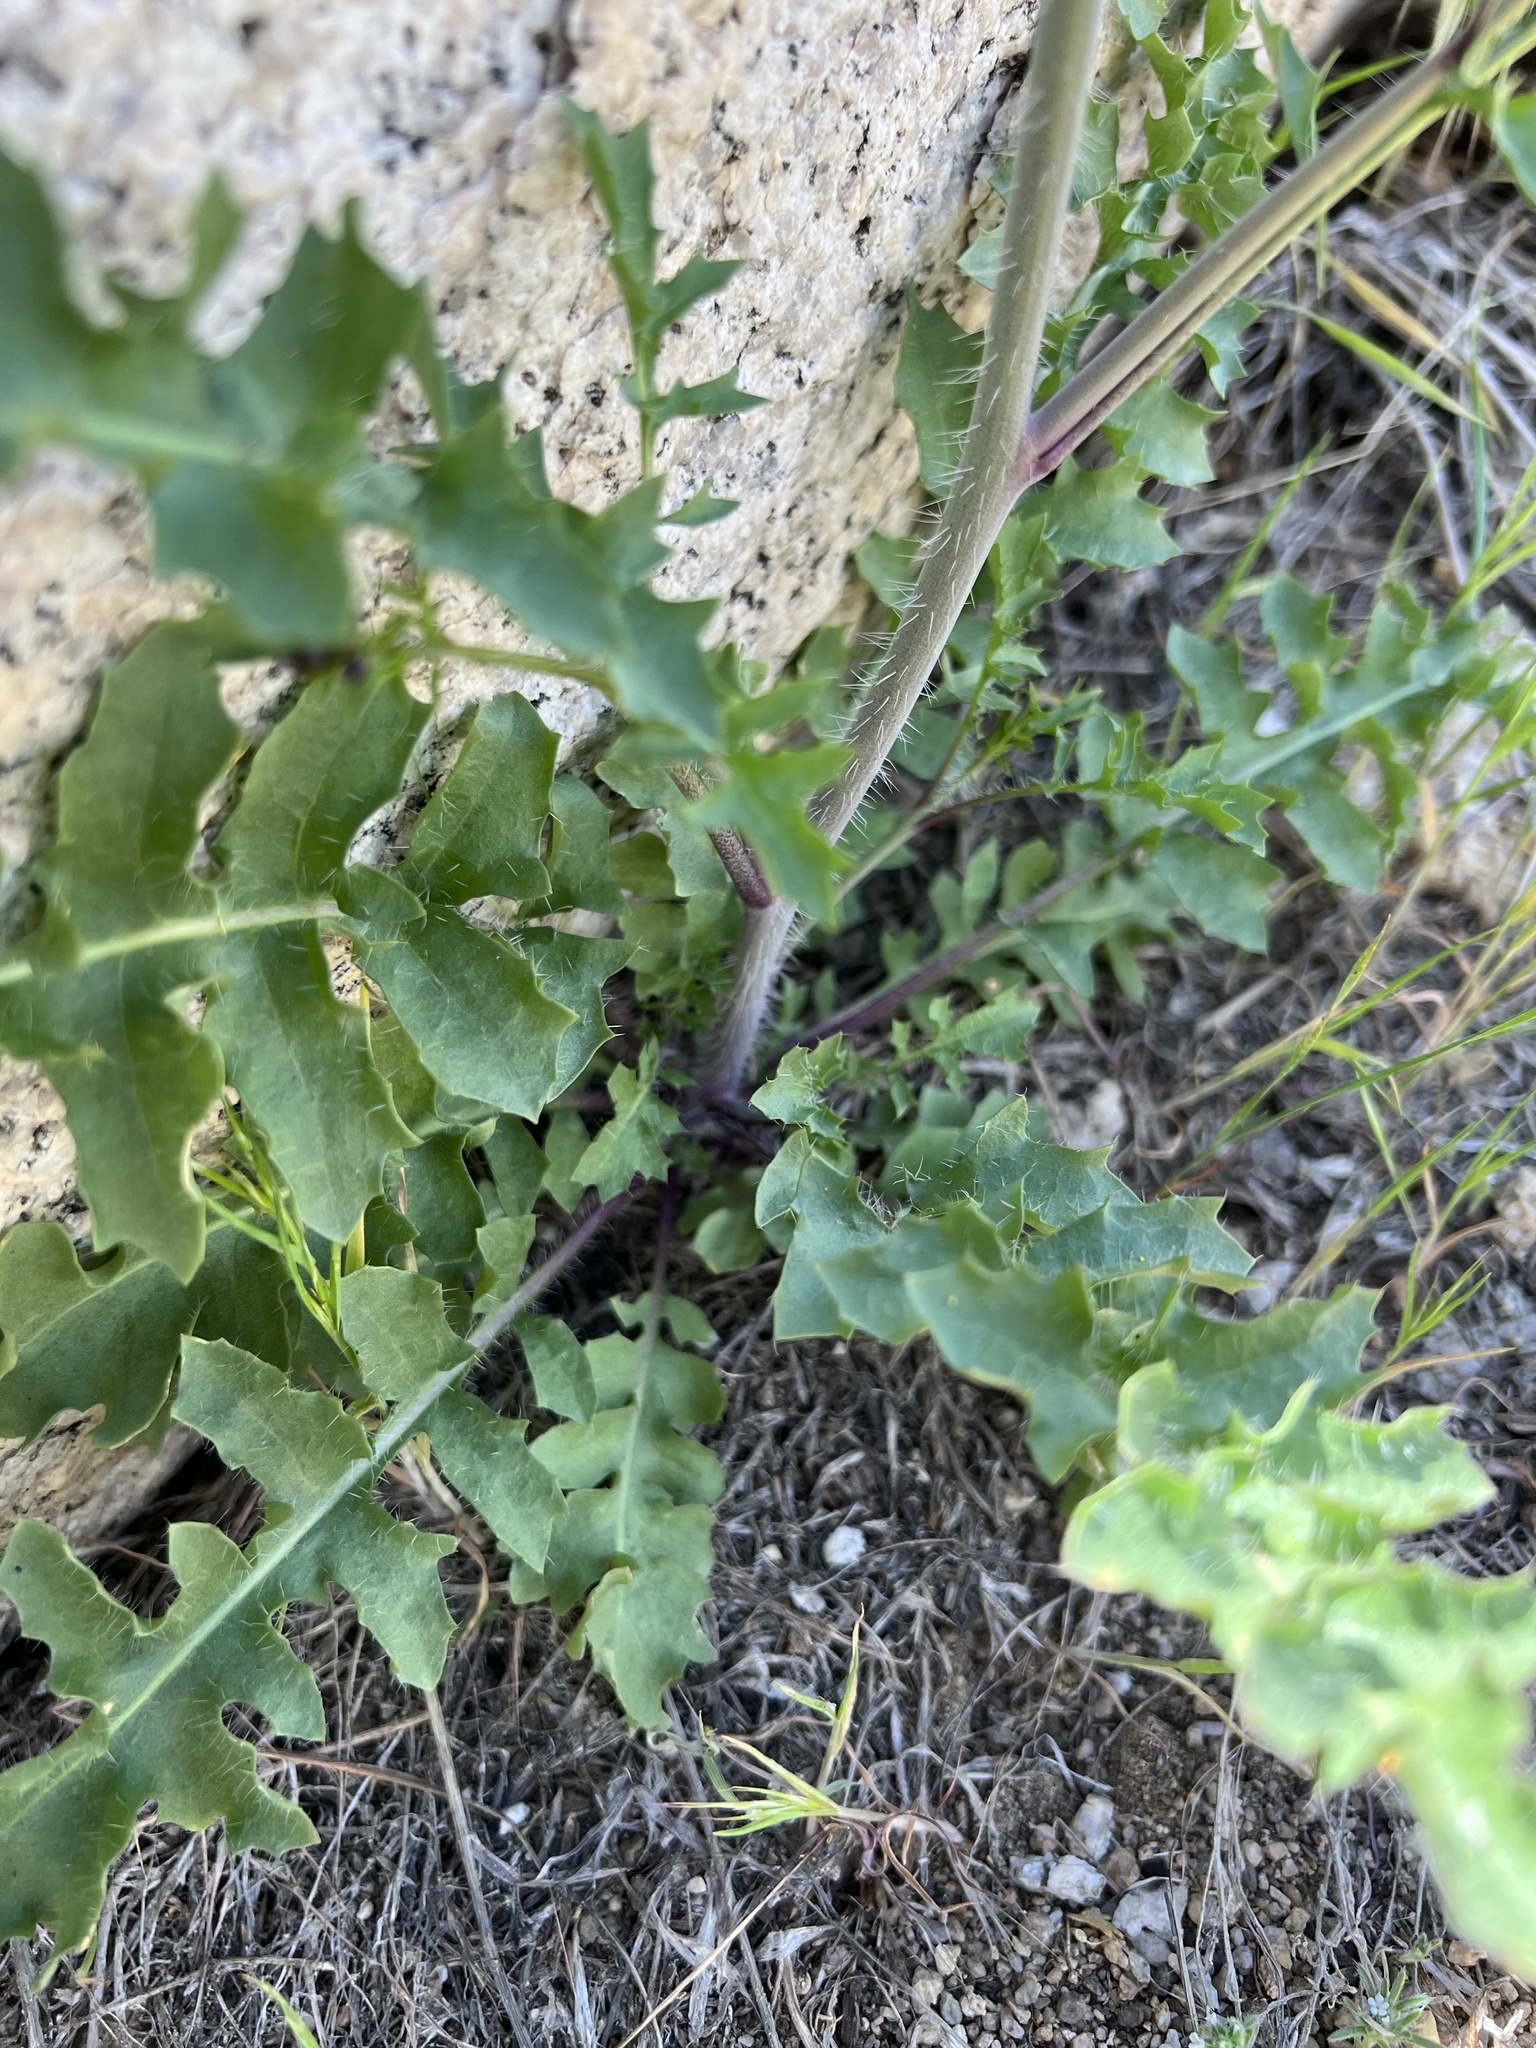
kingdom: Plantae
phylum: Tracheophyta
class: Magnoliopsida
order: Brassicales
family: Brassicaceae
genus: Streptanthus
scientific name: Streptanthus pilosus
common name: Chocolate drops
